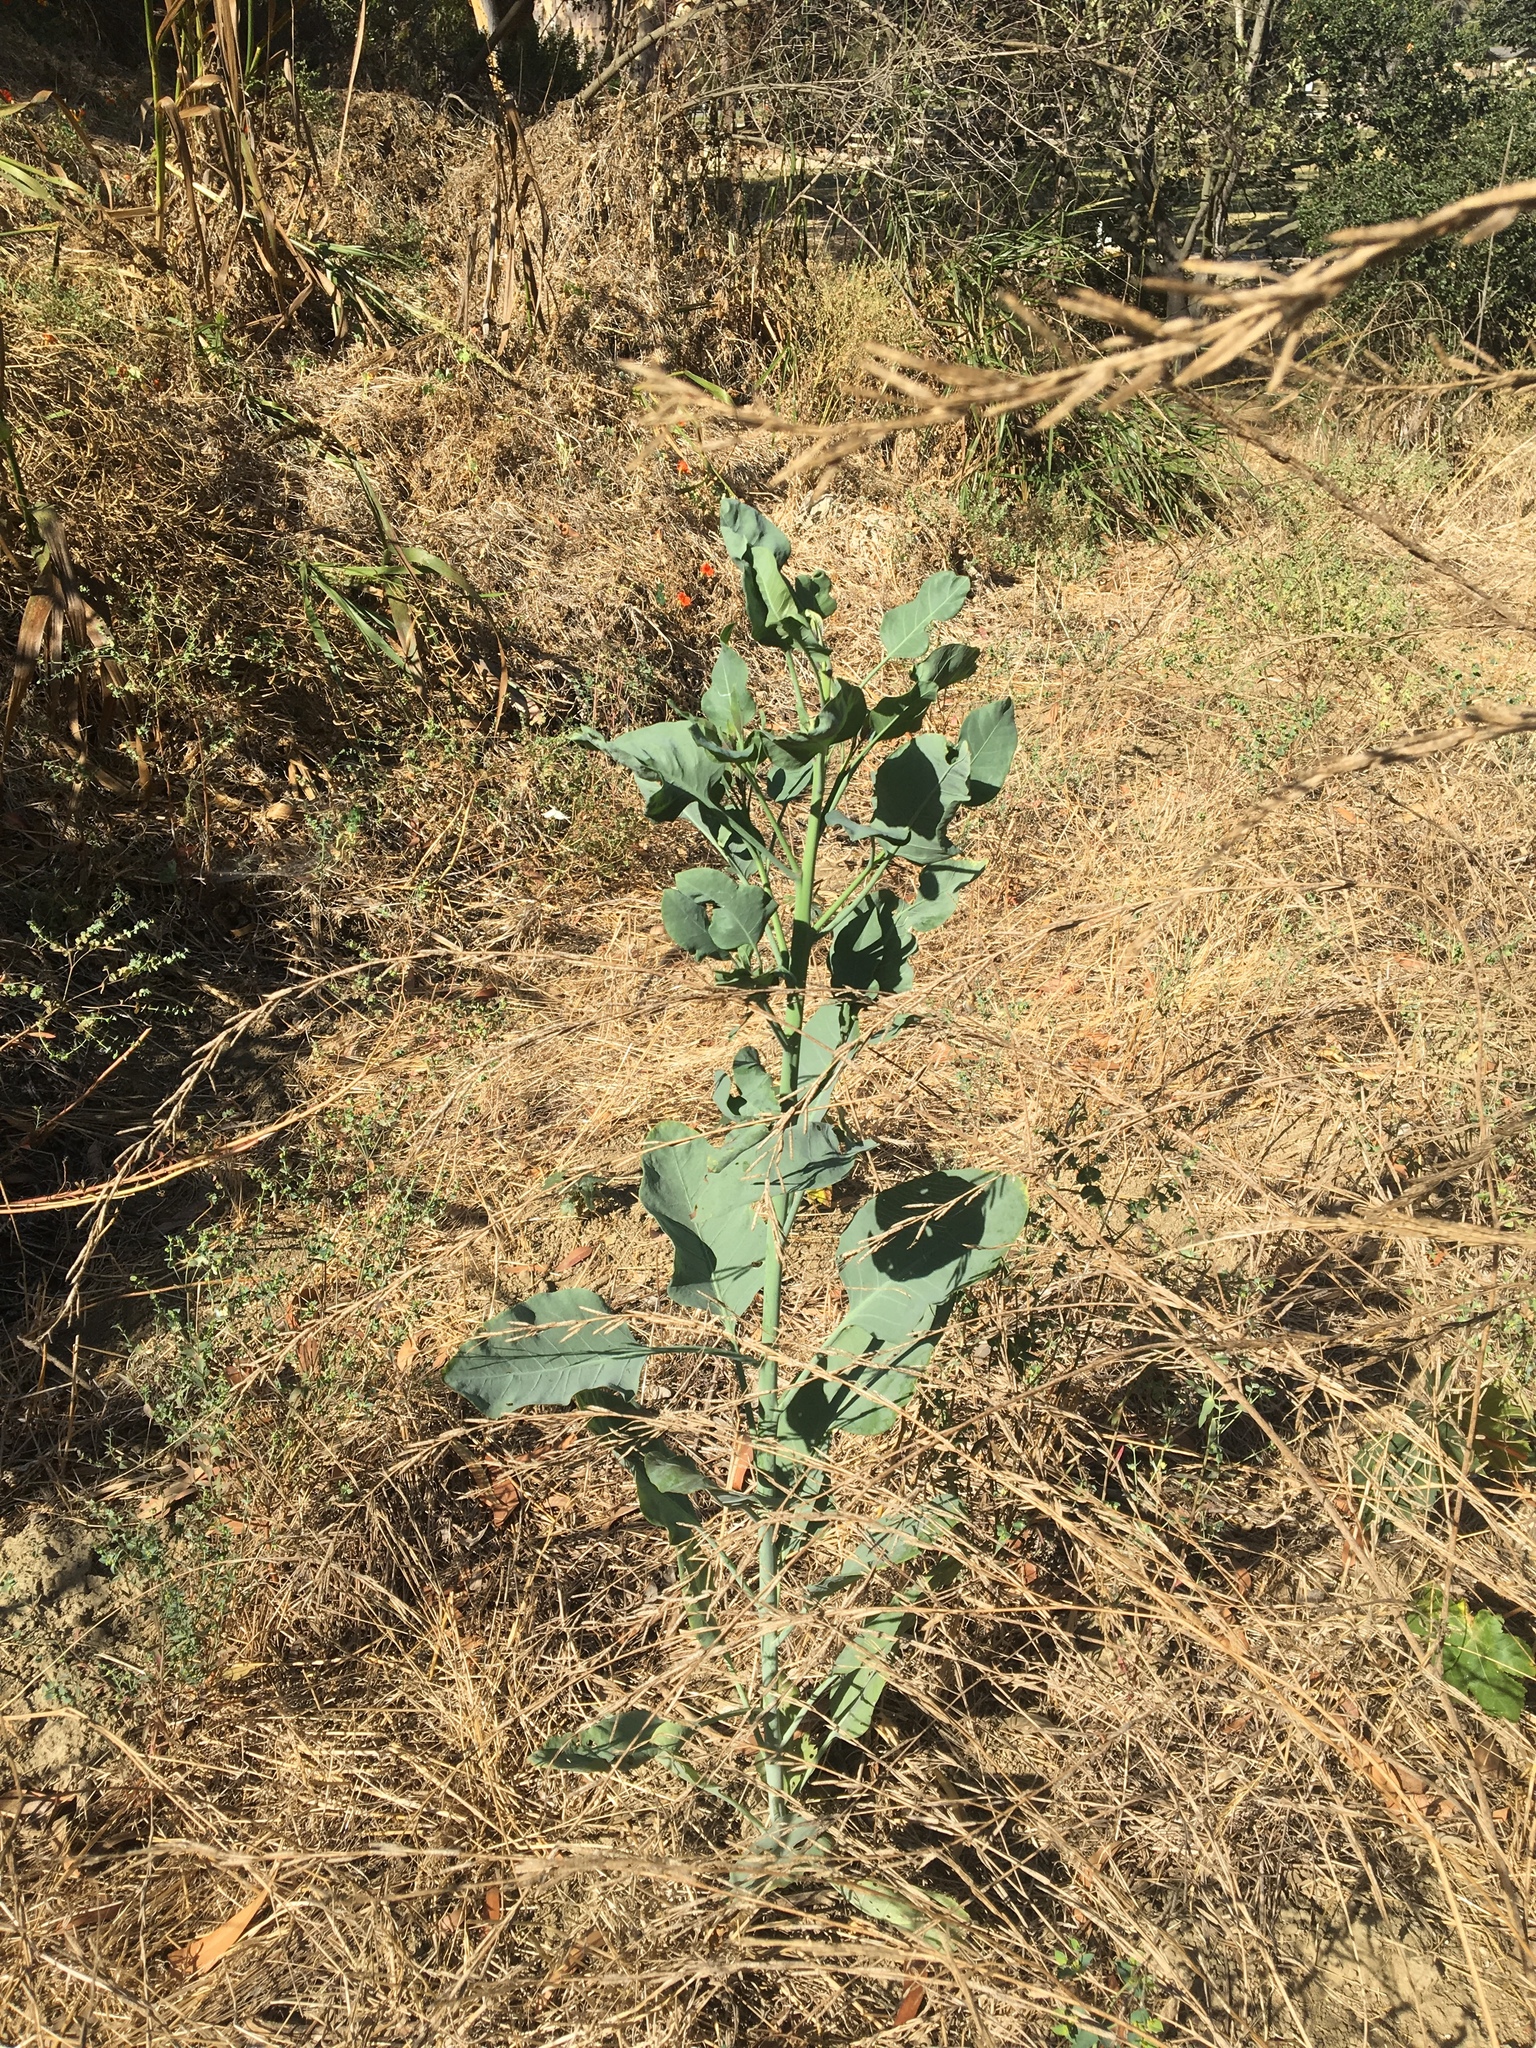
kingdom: Plantae
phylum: Tracheophyta
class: Magnoliopsida
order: Solanales
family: Solanaceae
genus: Nicotiana
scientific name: Nicotiana glauca
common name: Tree tobacco
